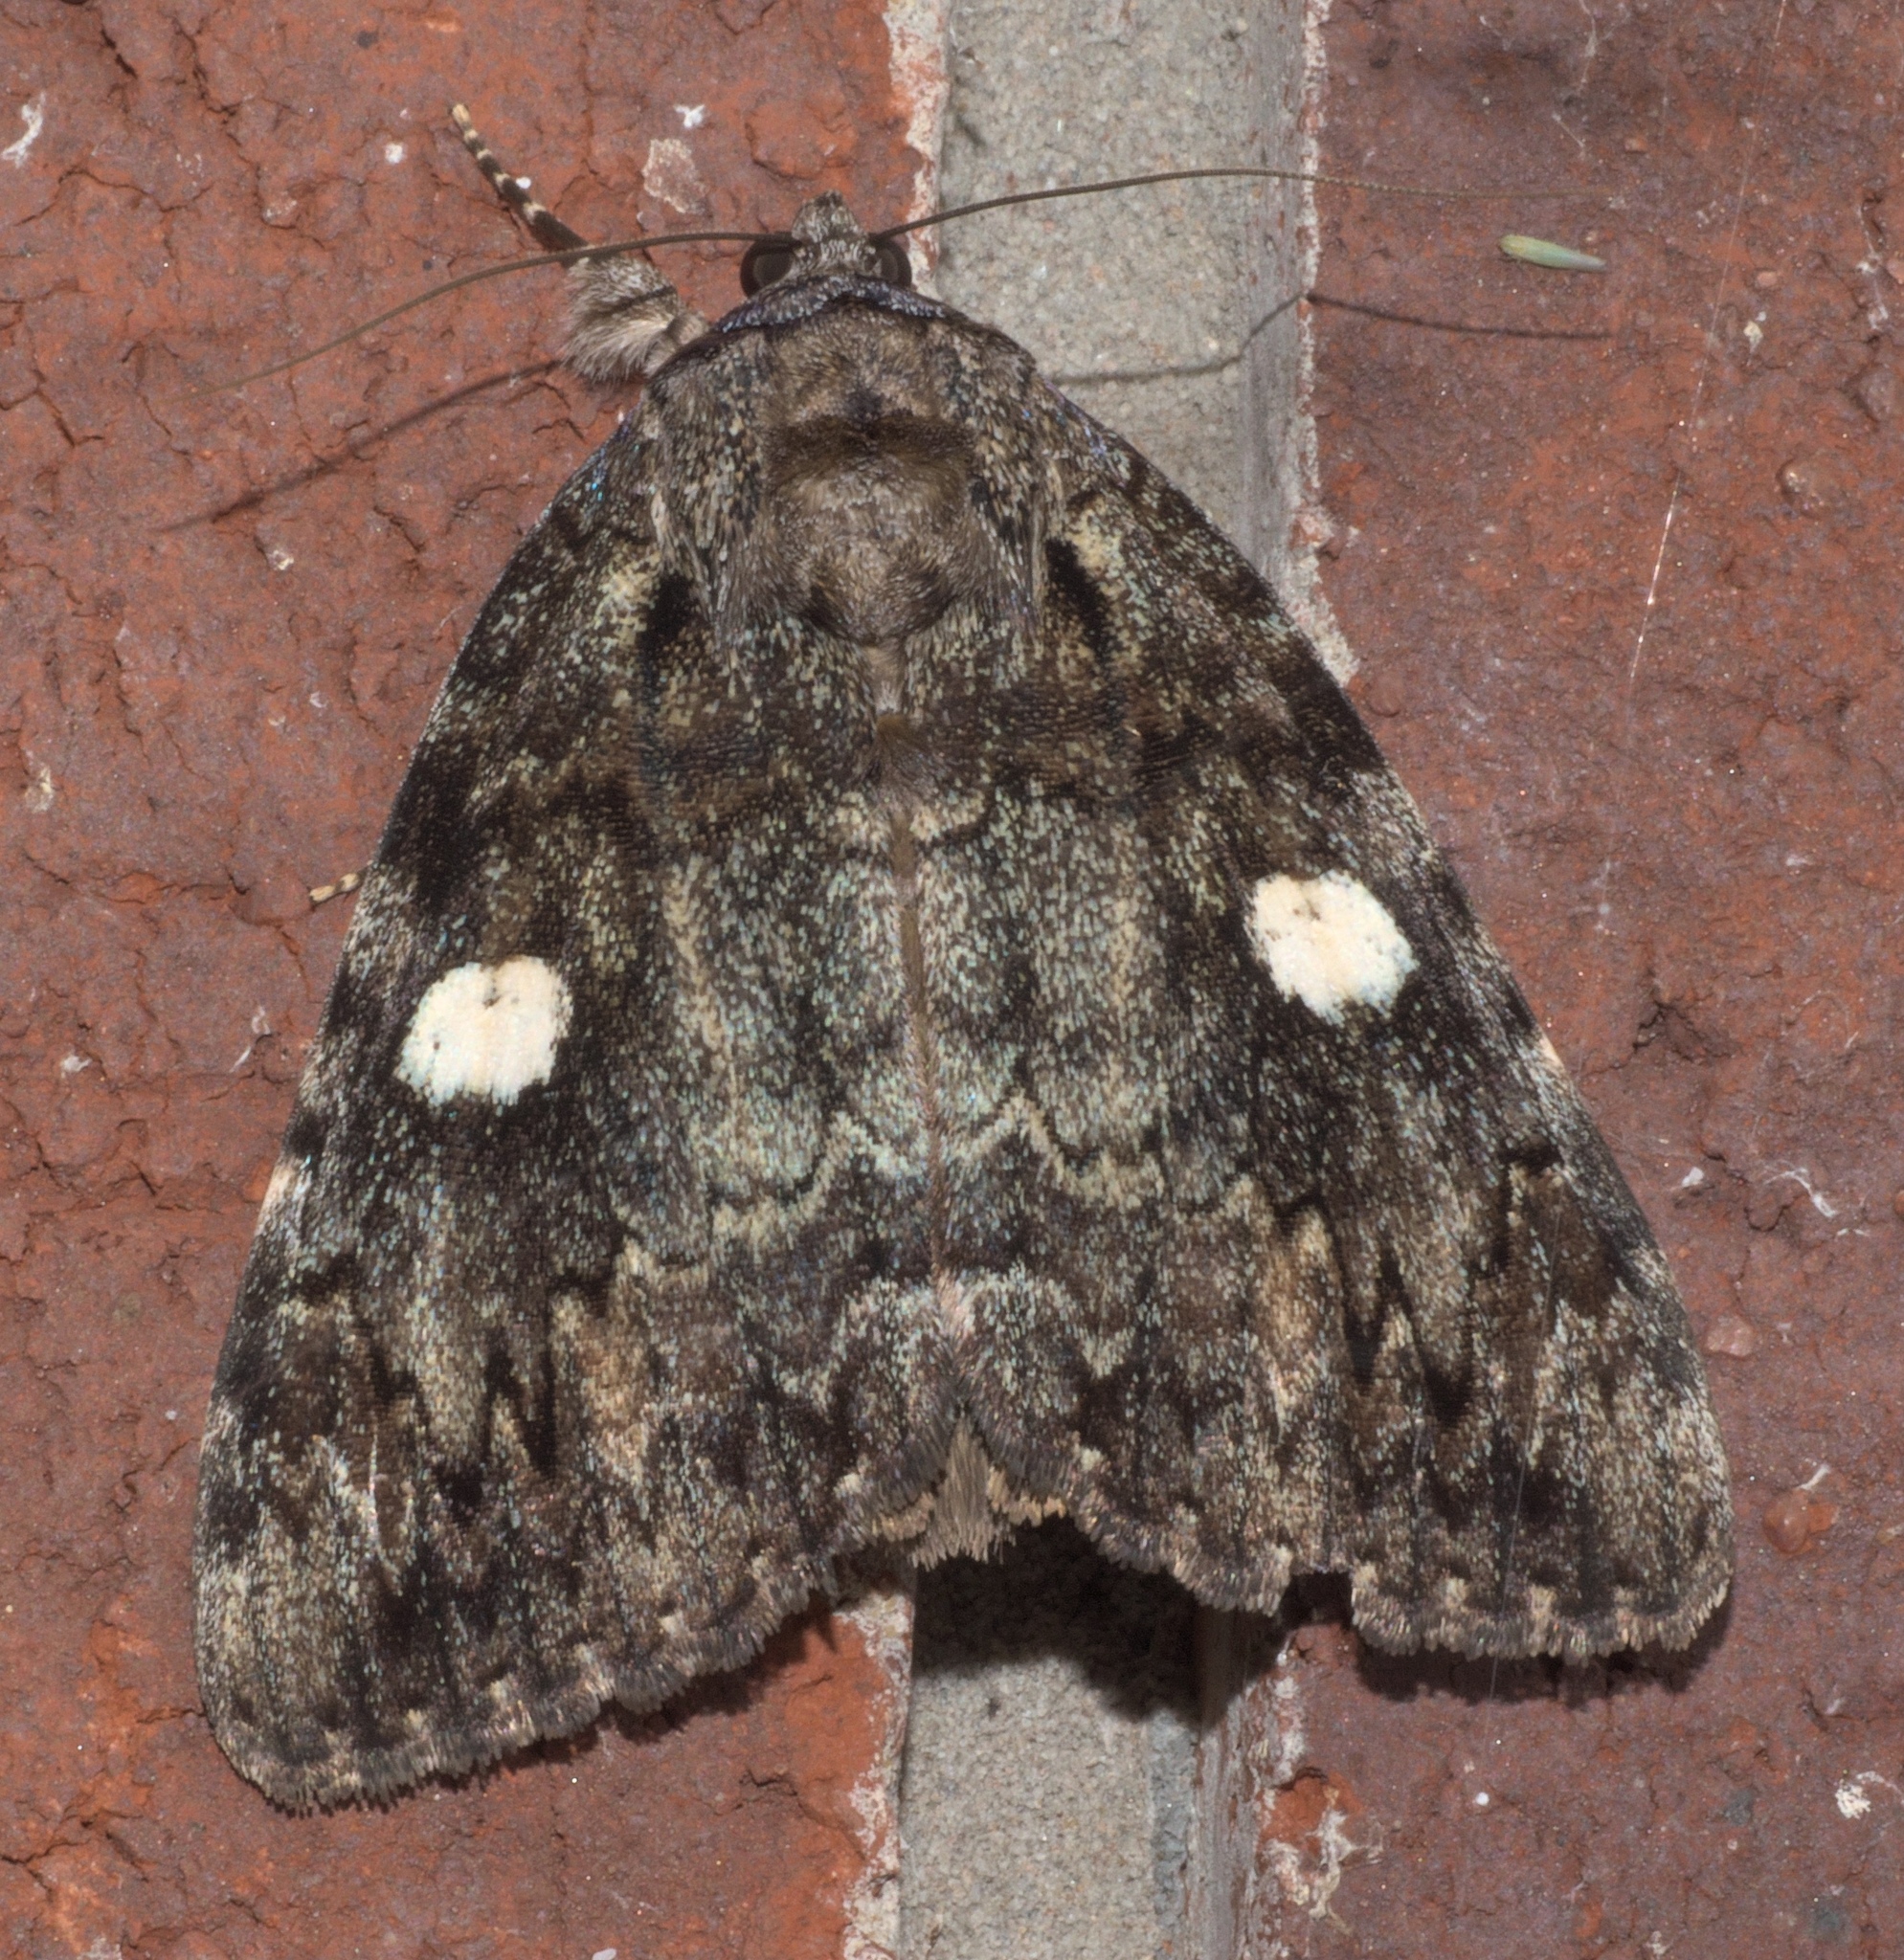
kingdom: Animalia
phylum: Arthropoda
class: Insecta
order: Lepidoptera
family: Erebidae
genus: Catocala
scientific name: Catocala ilia
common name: Ilia underwing
